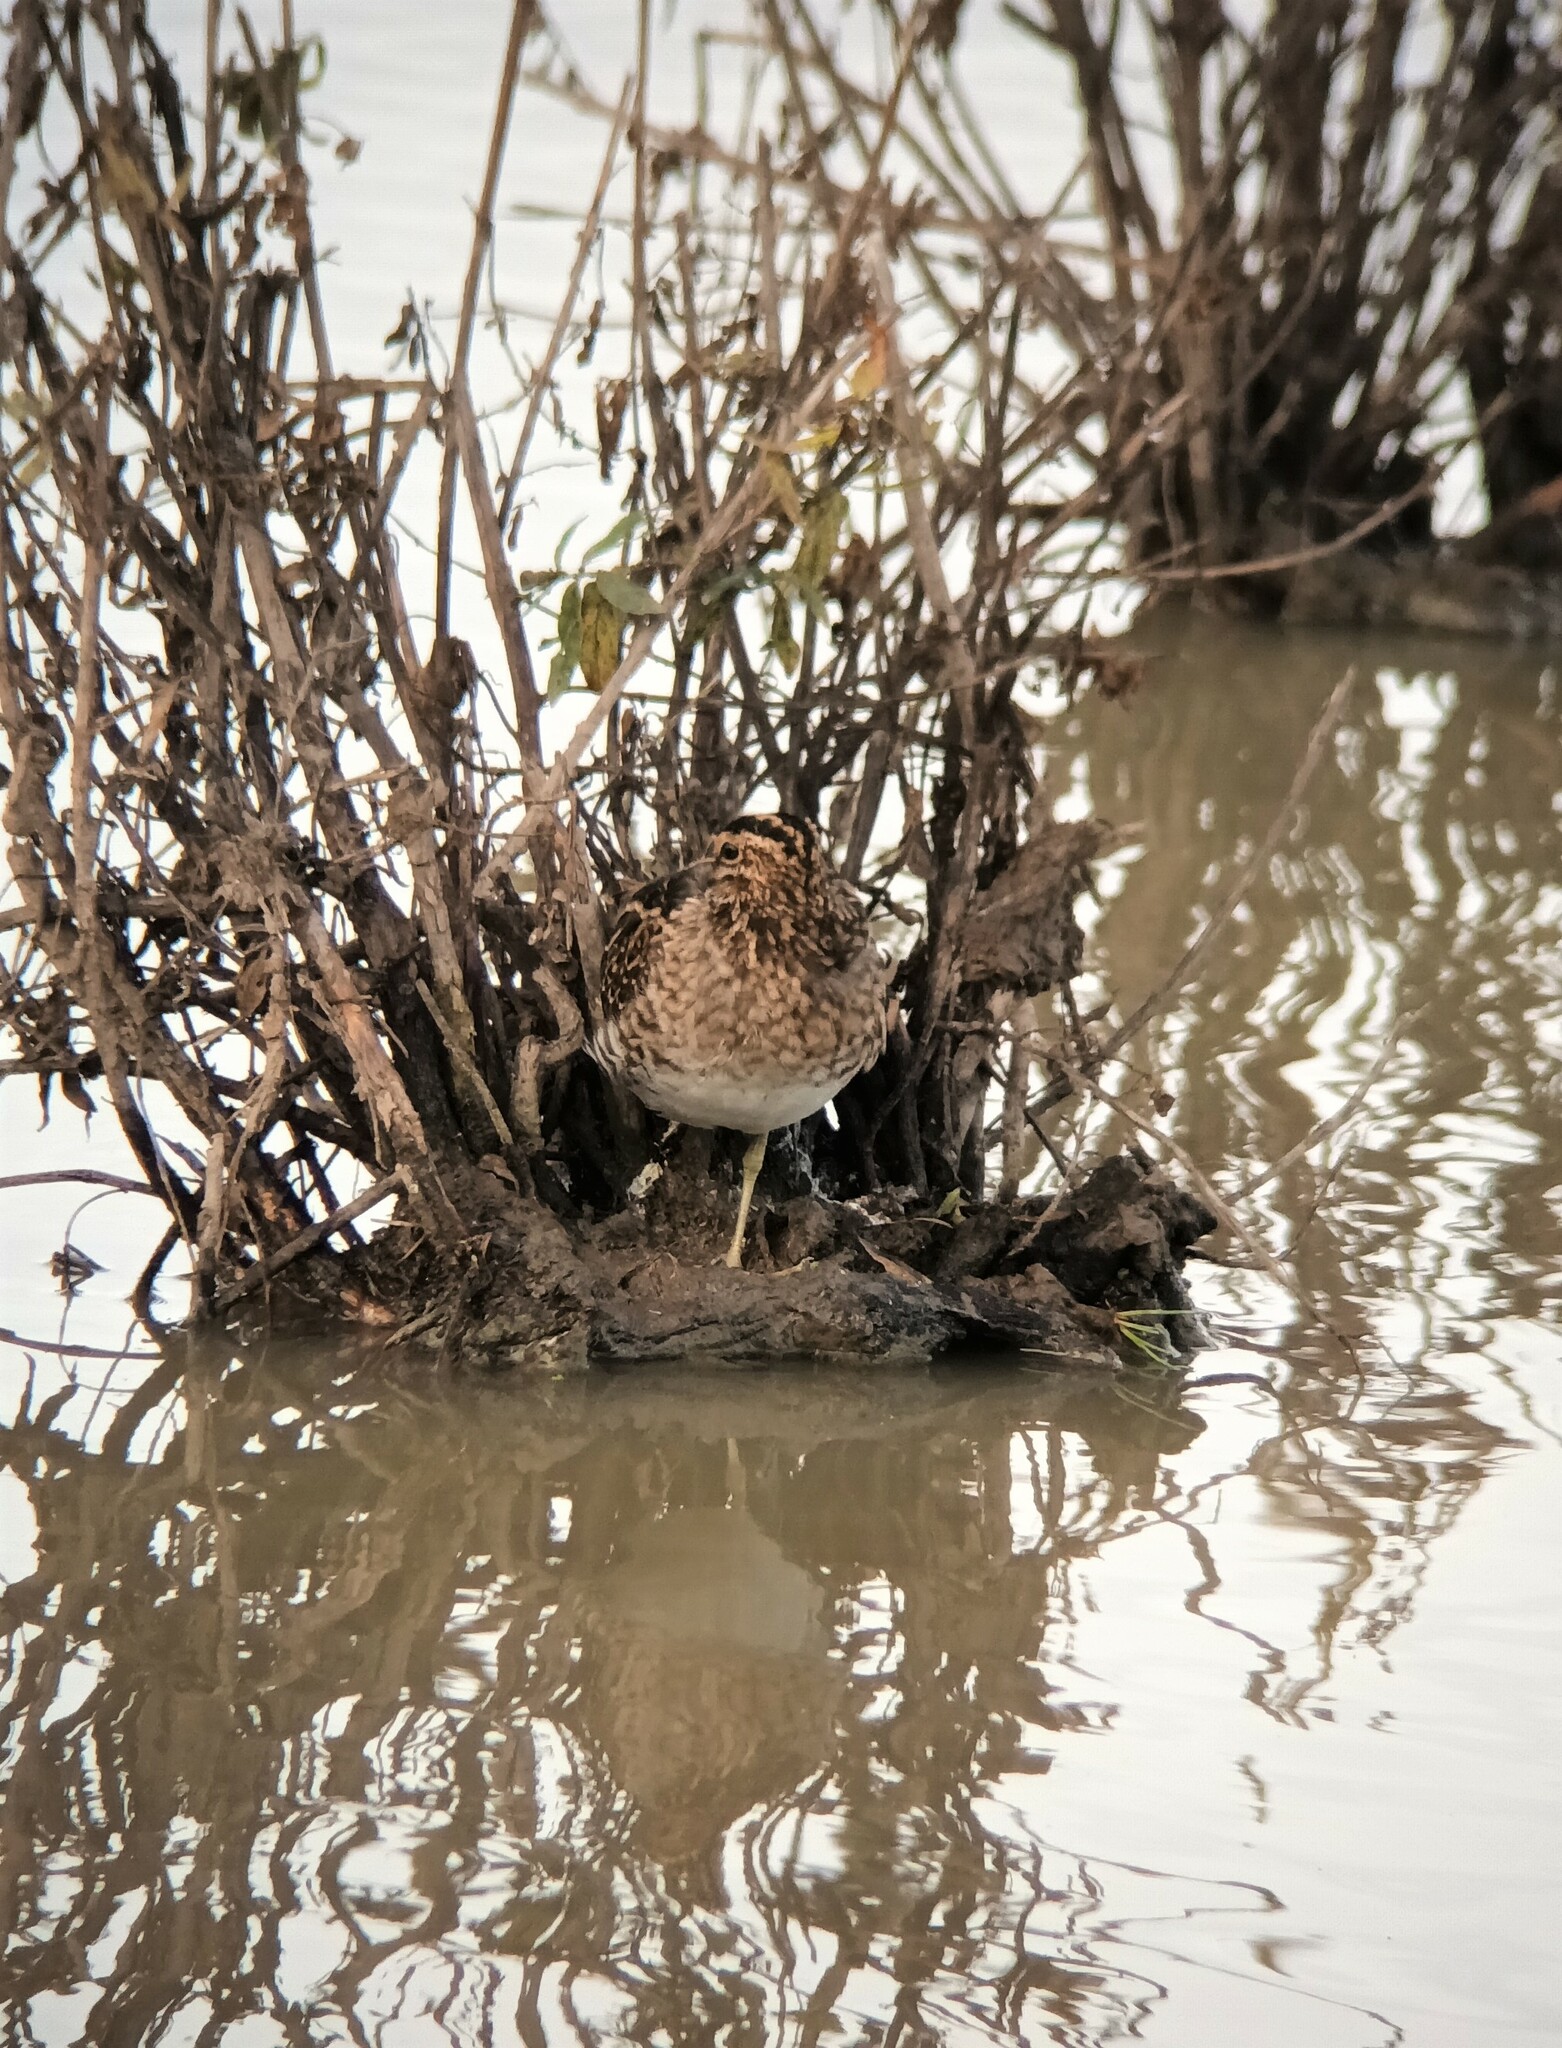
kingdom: Animalia
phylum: Chordata
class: Aves
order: Charadriiformes
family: Scolopacidae
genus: Gallinago
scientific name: Gallinago gallinago
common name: Common snipe
